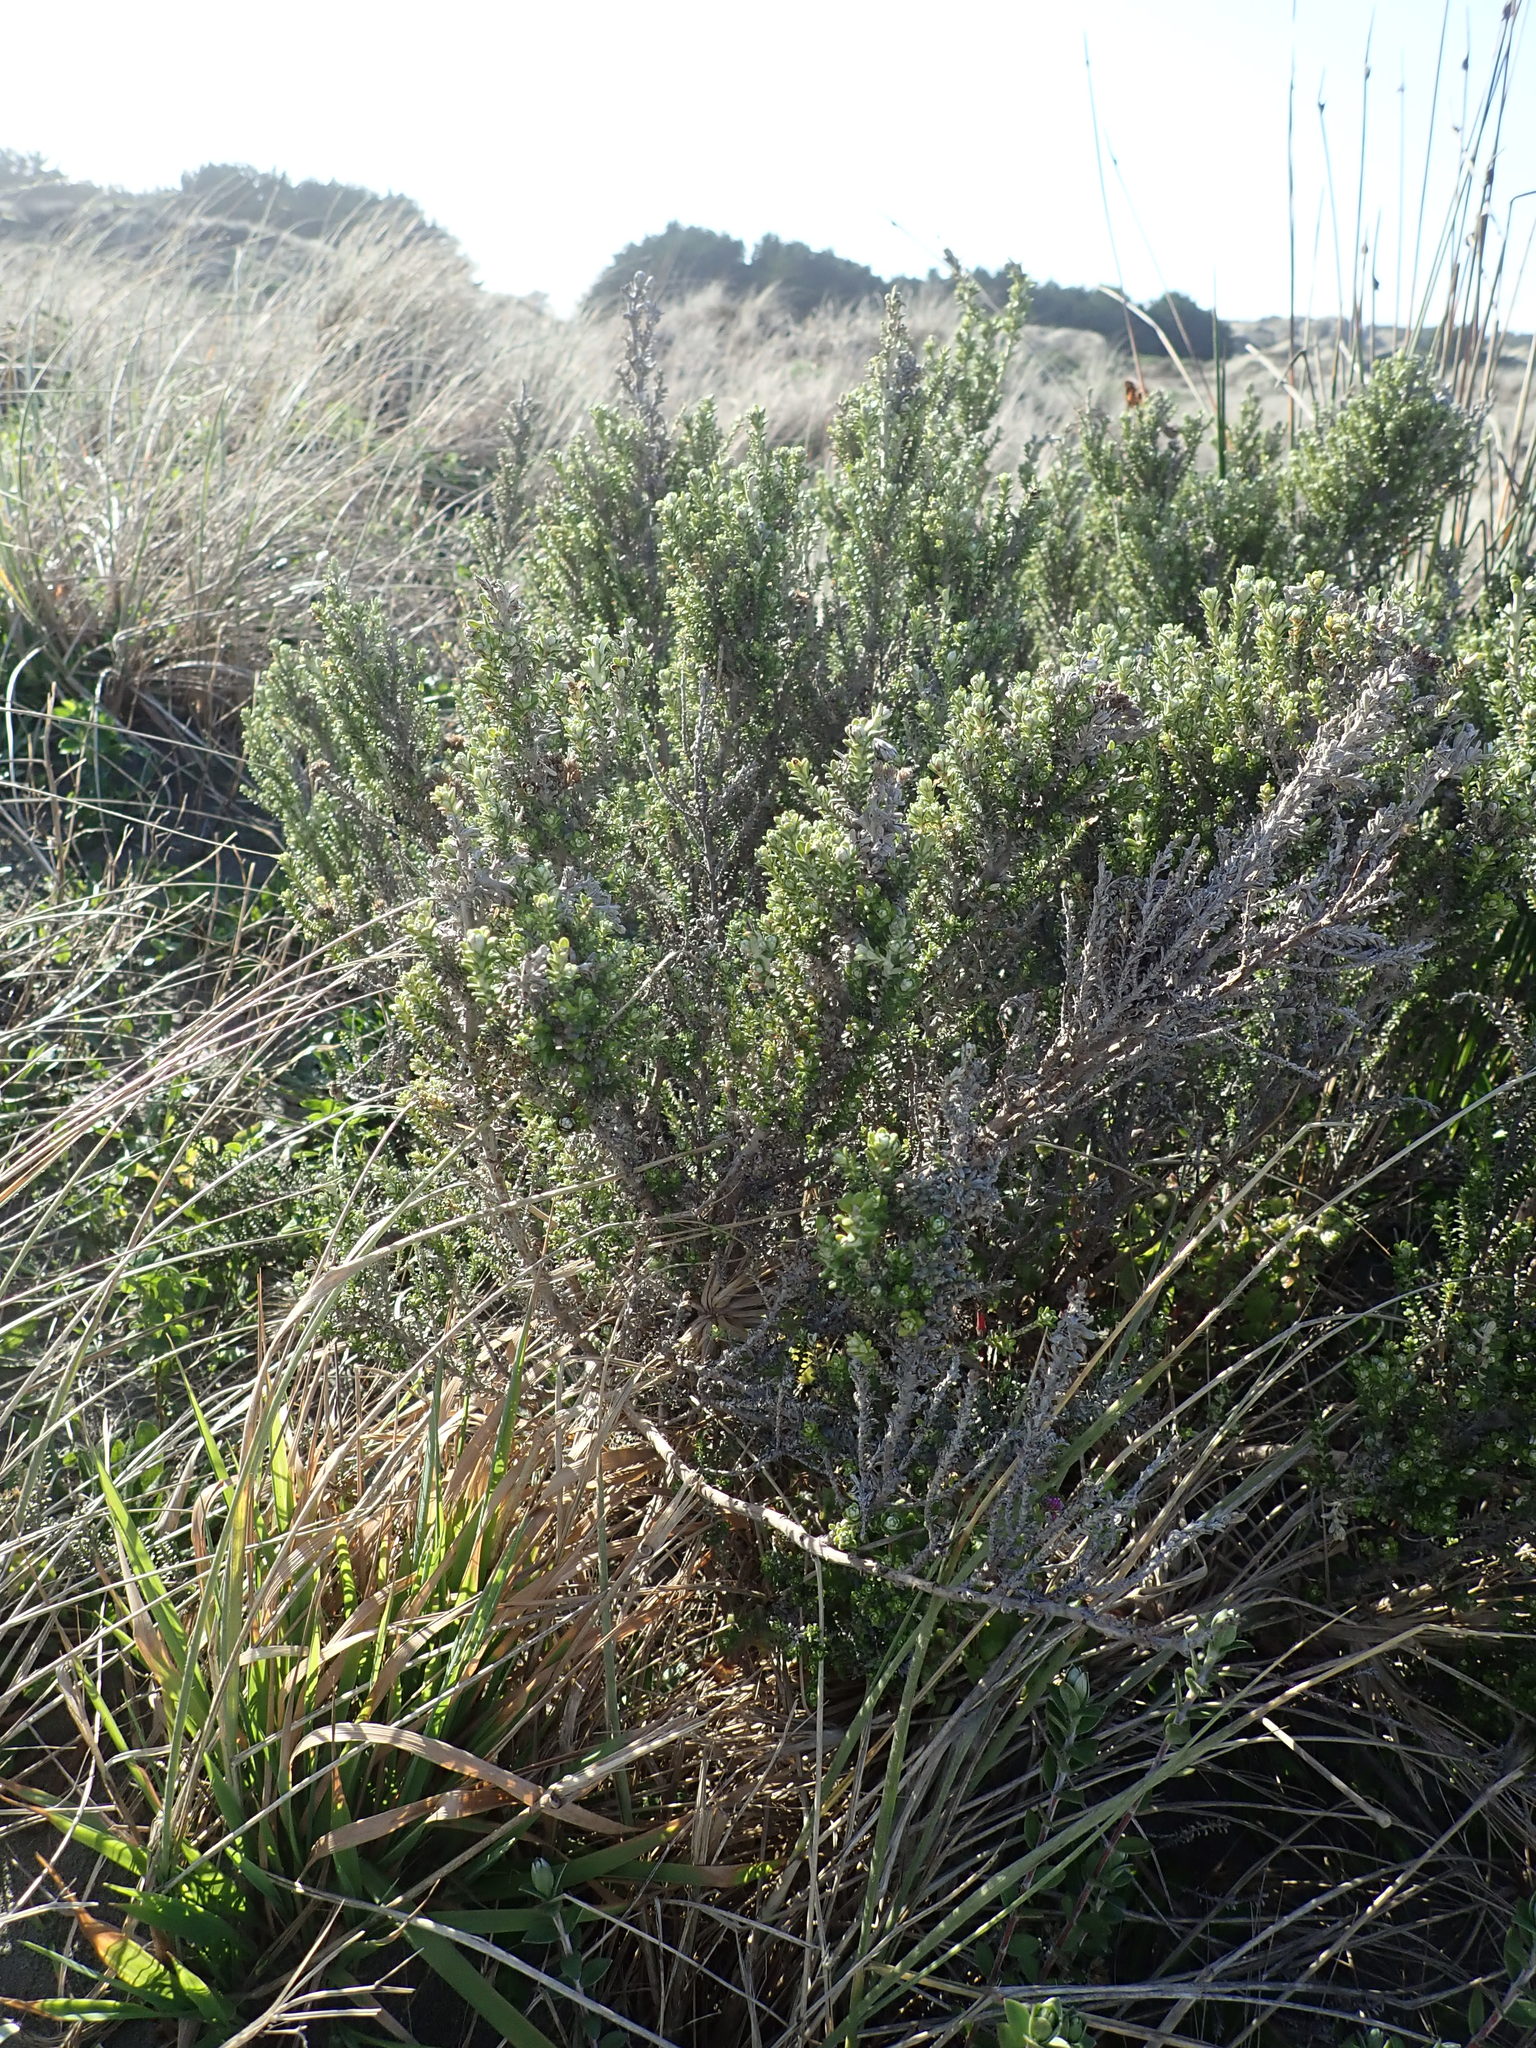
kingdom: Plantae
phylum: Tracheophyta
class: Magnoliopsida
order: Asterales
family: Asteraceae
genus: Ozothamnus
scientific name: Ozothamnus leptophyllus
